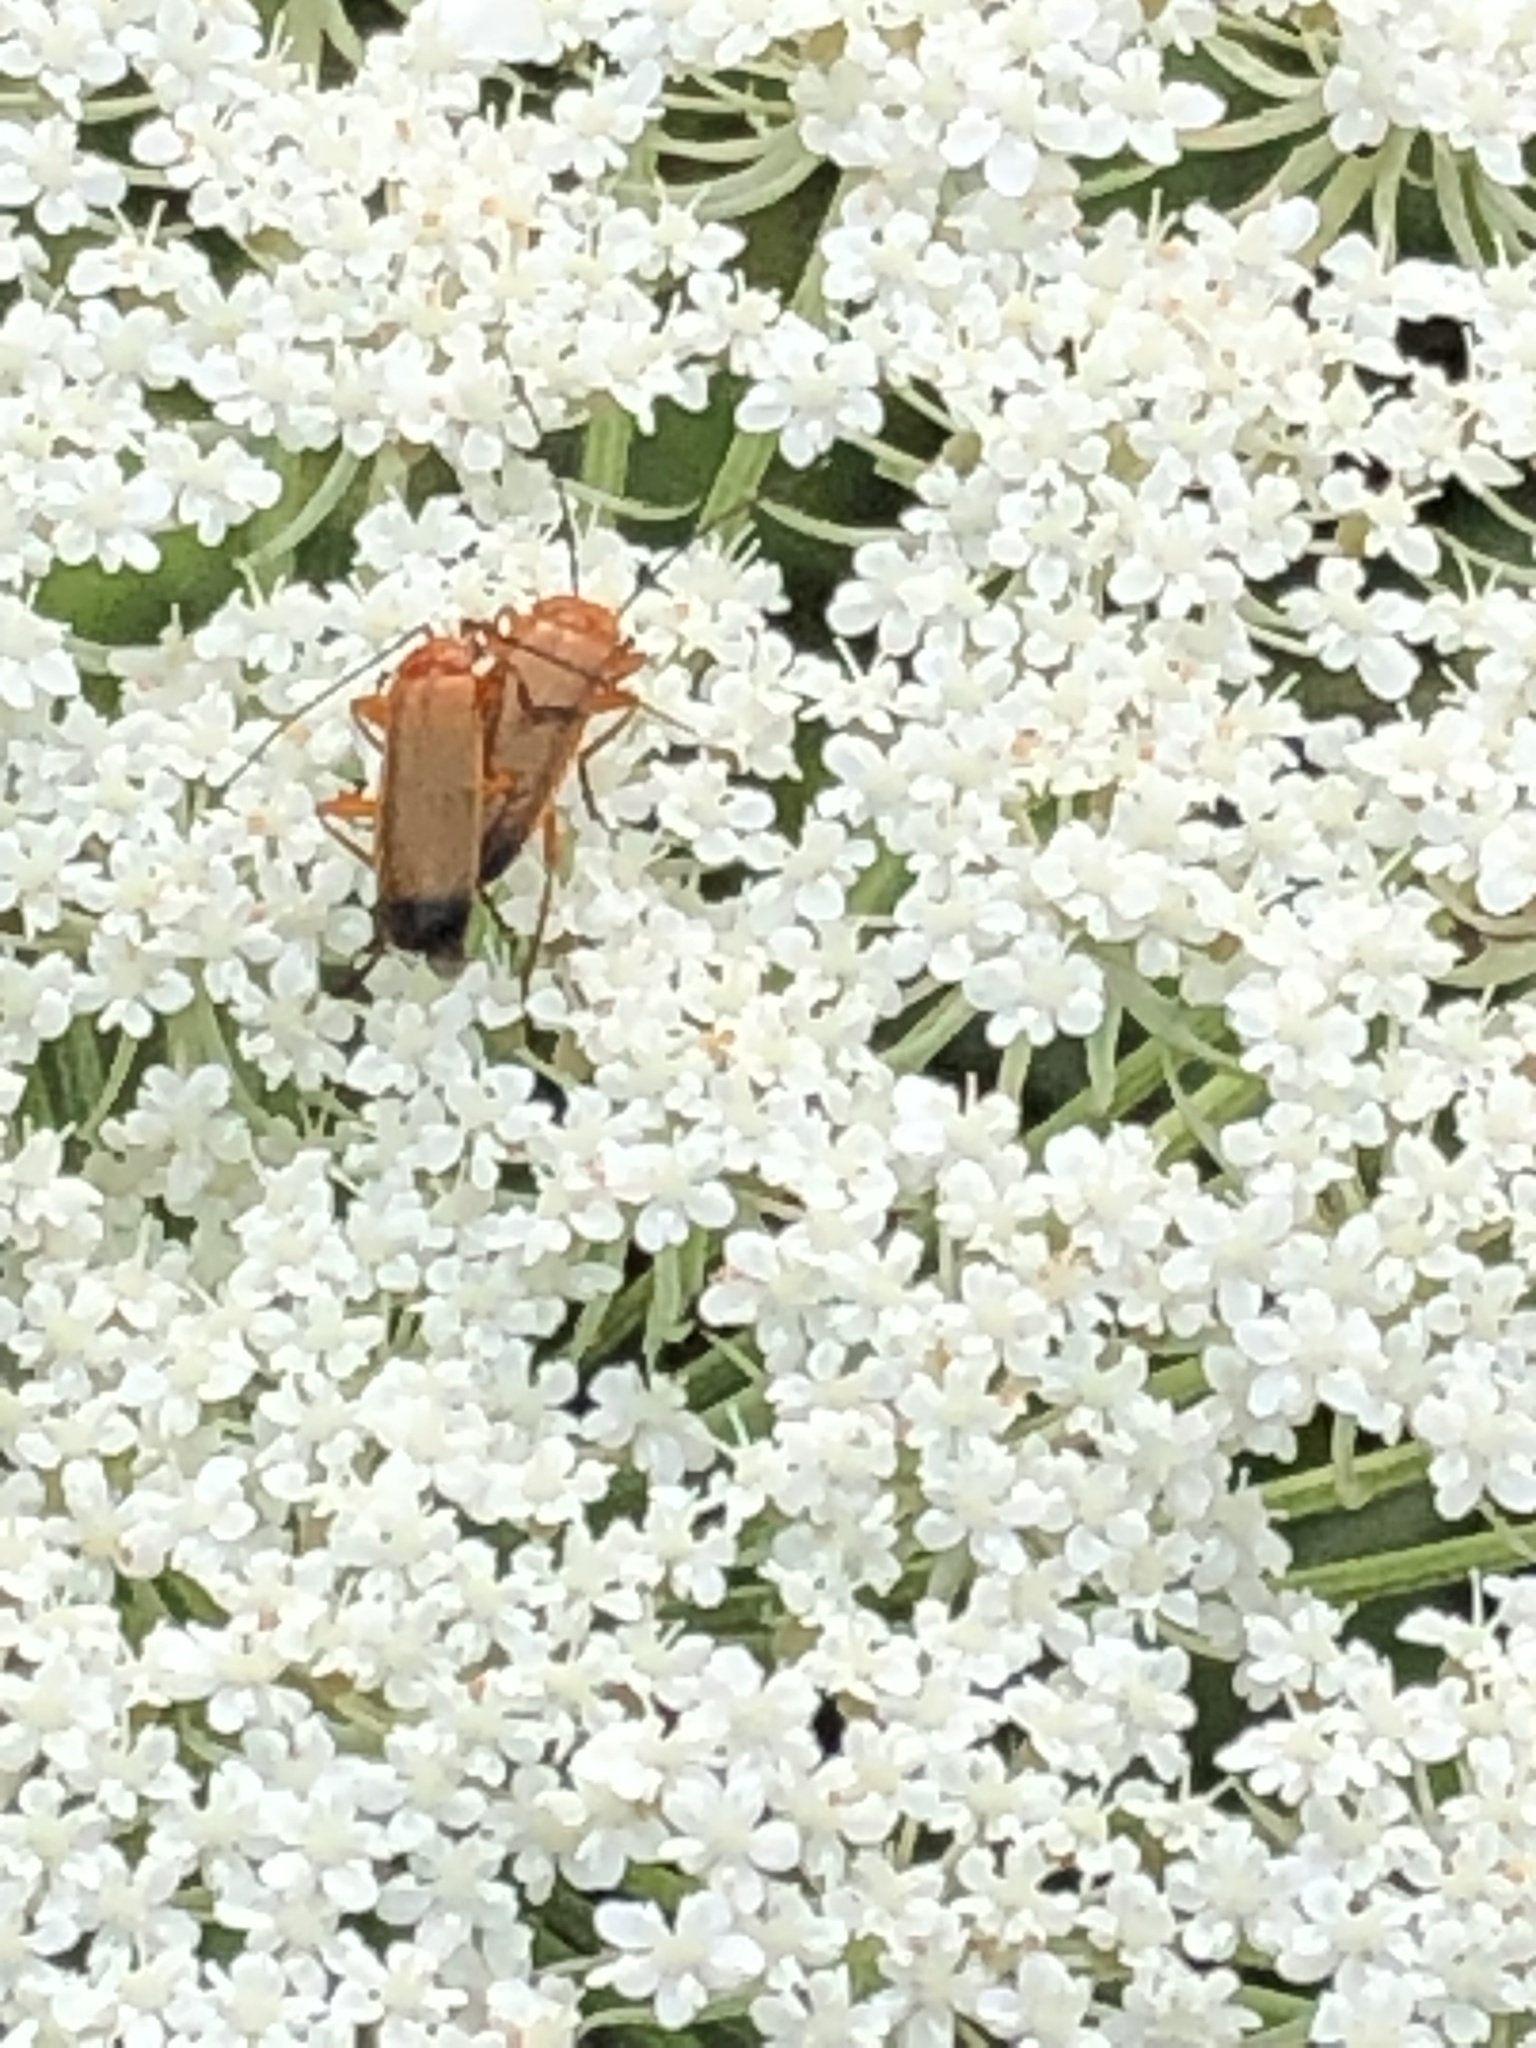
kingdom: Animalia
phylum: Arthropoda
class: Insecta
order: Coleoptera
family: Cantharidae
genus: Rhagonycha
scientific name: Rhagonycha fulva
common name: Common red soldier beetle
